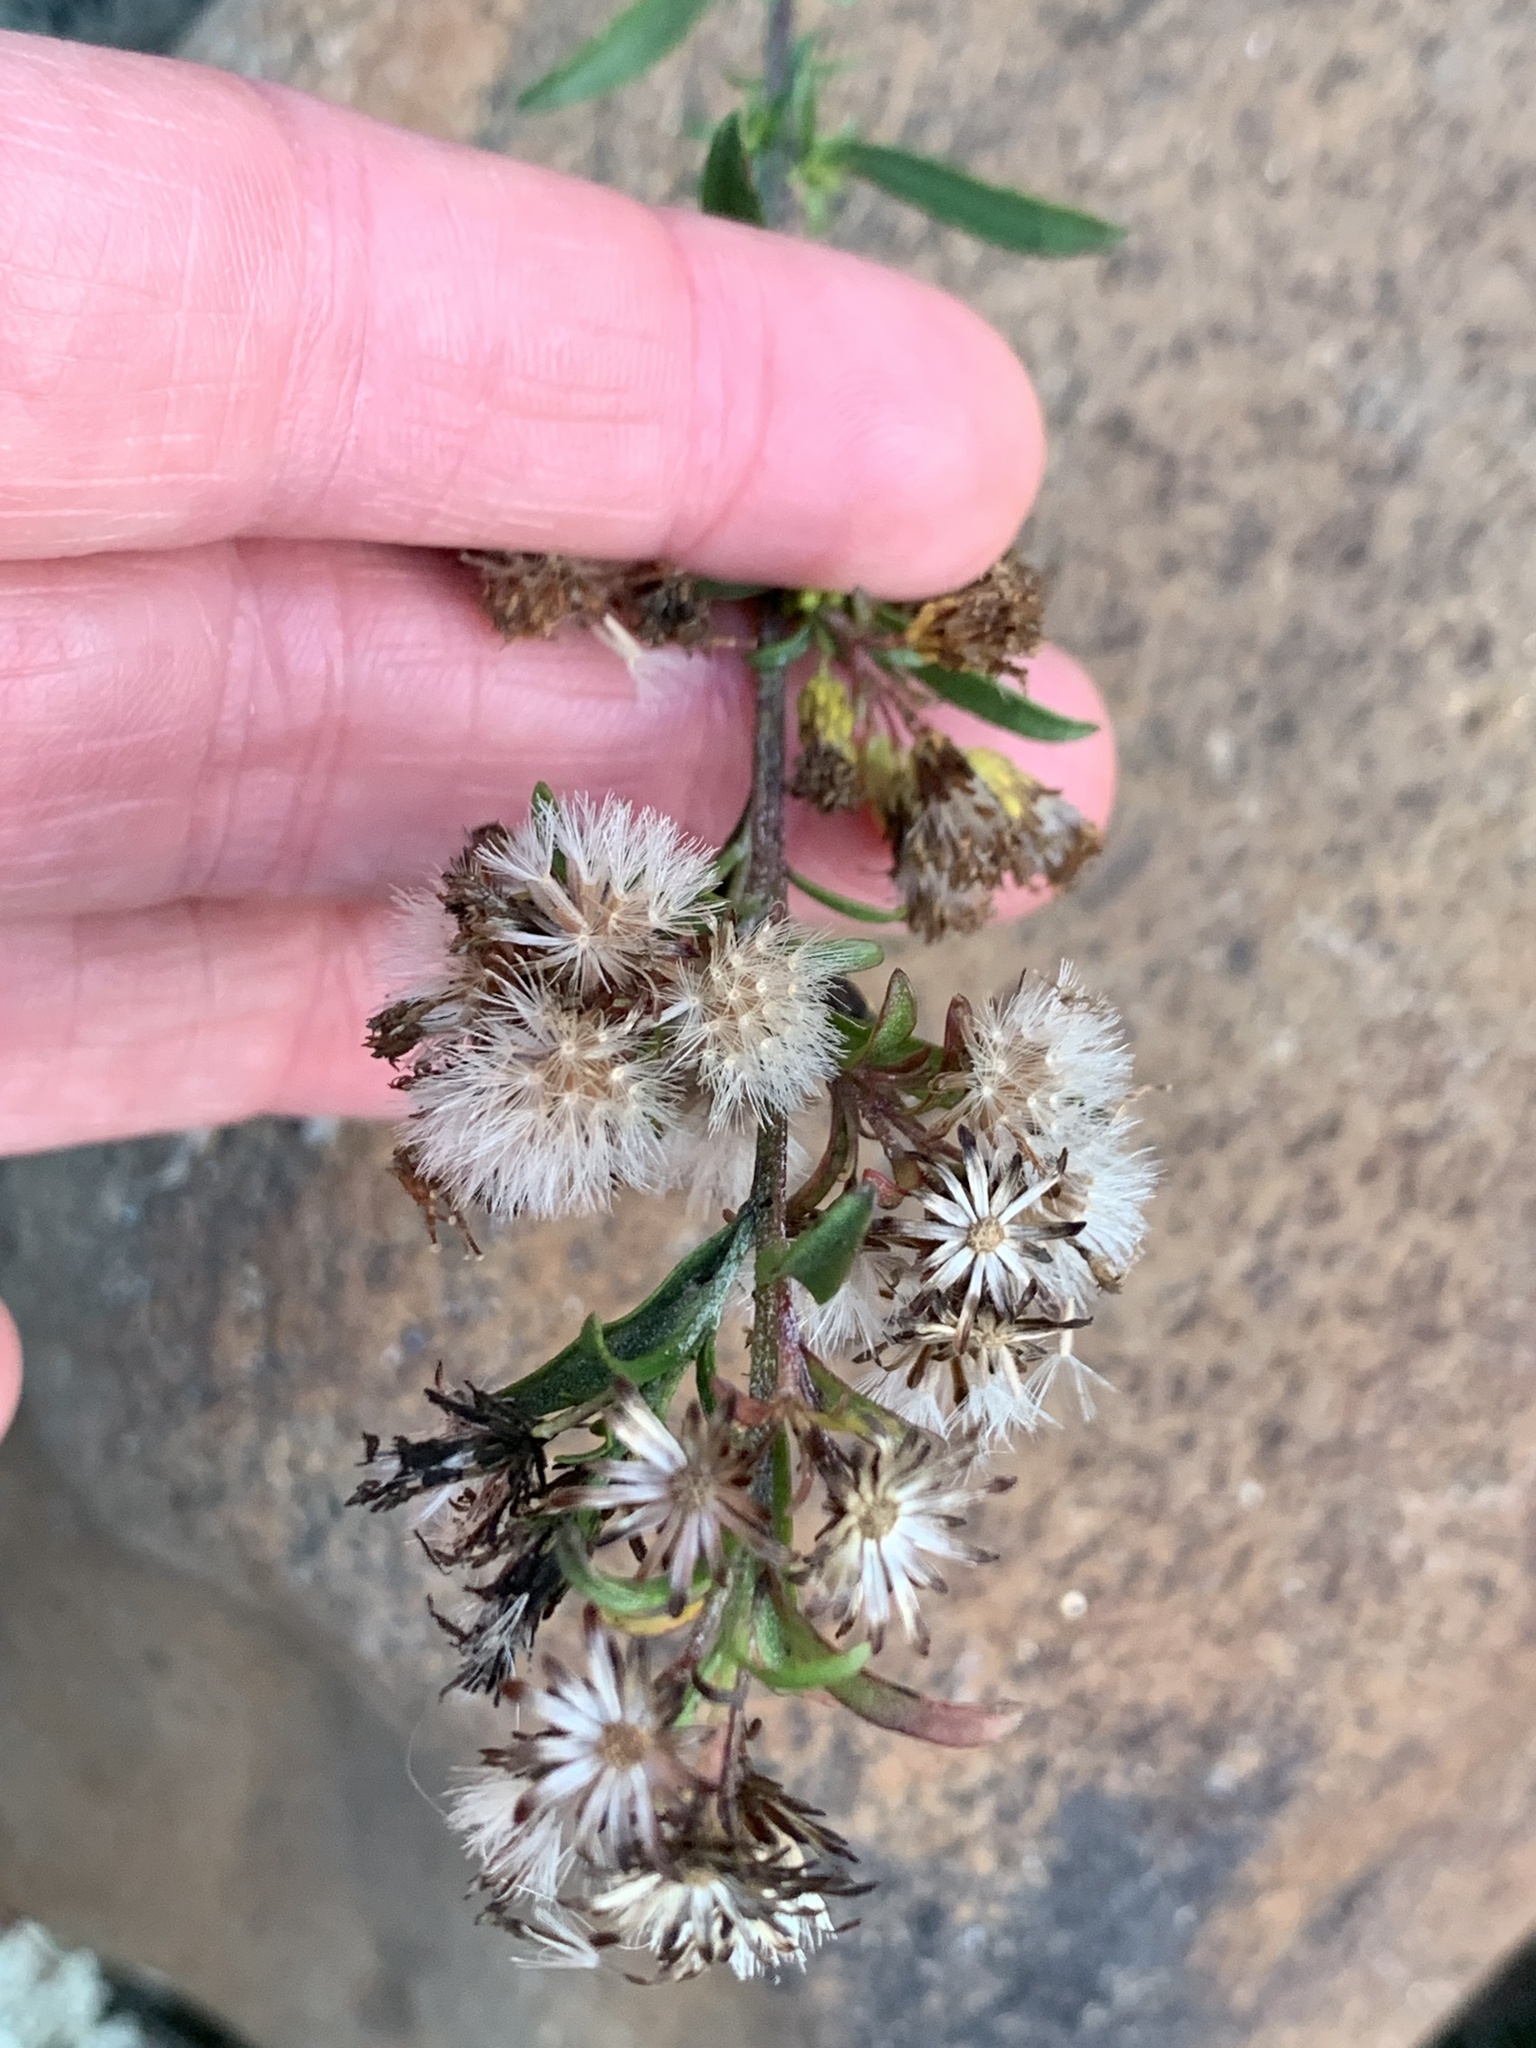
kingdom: Plantae
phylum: Tracheophyta
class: Magnoliopsida
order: Asterales
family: Asteraceae
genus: Solidago
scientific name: Solidago racemosa
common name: Lake ontario goldenrod
